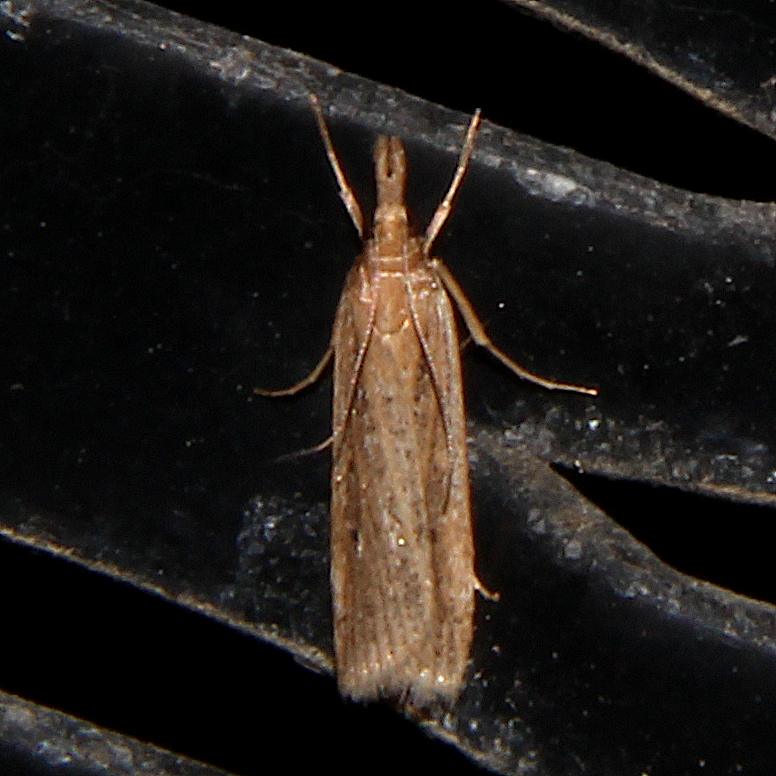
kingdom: Animalia
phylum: Arthropoda
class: Insecta
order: Lepidoptera
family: Crambidae
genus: Eudonia
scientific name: Eudonia sabulosella
